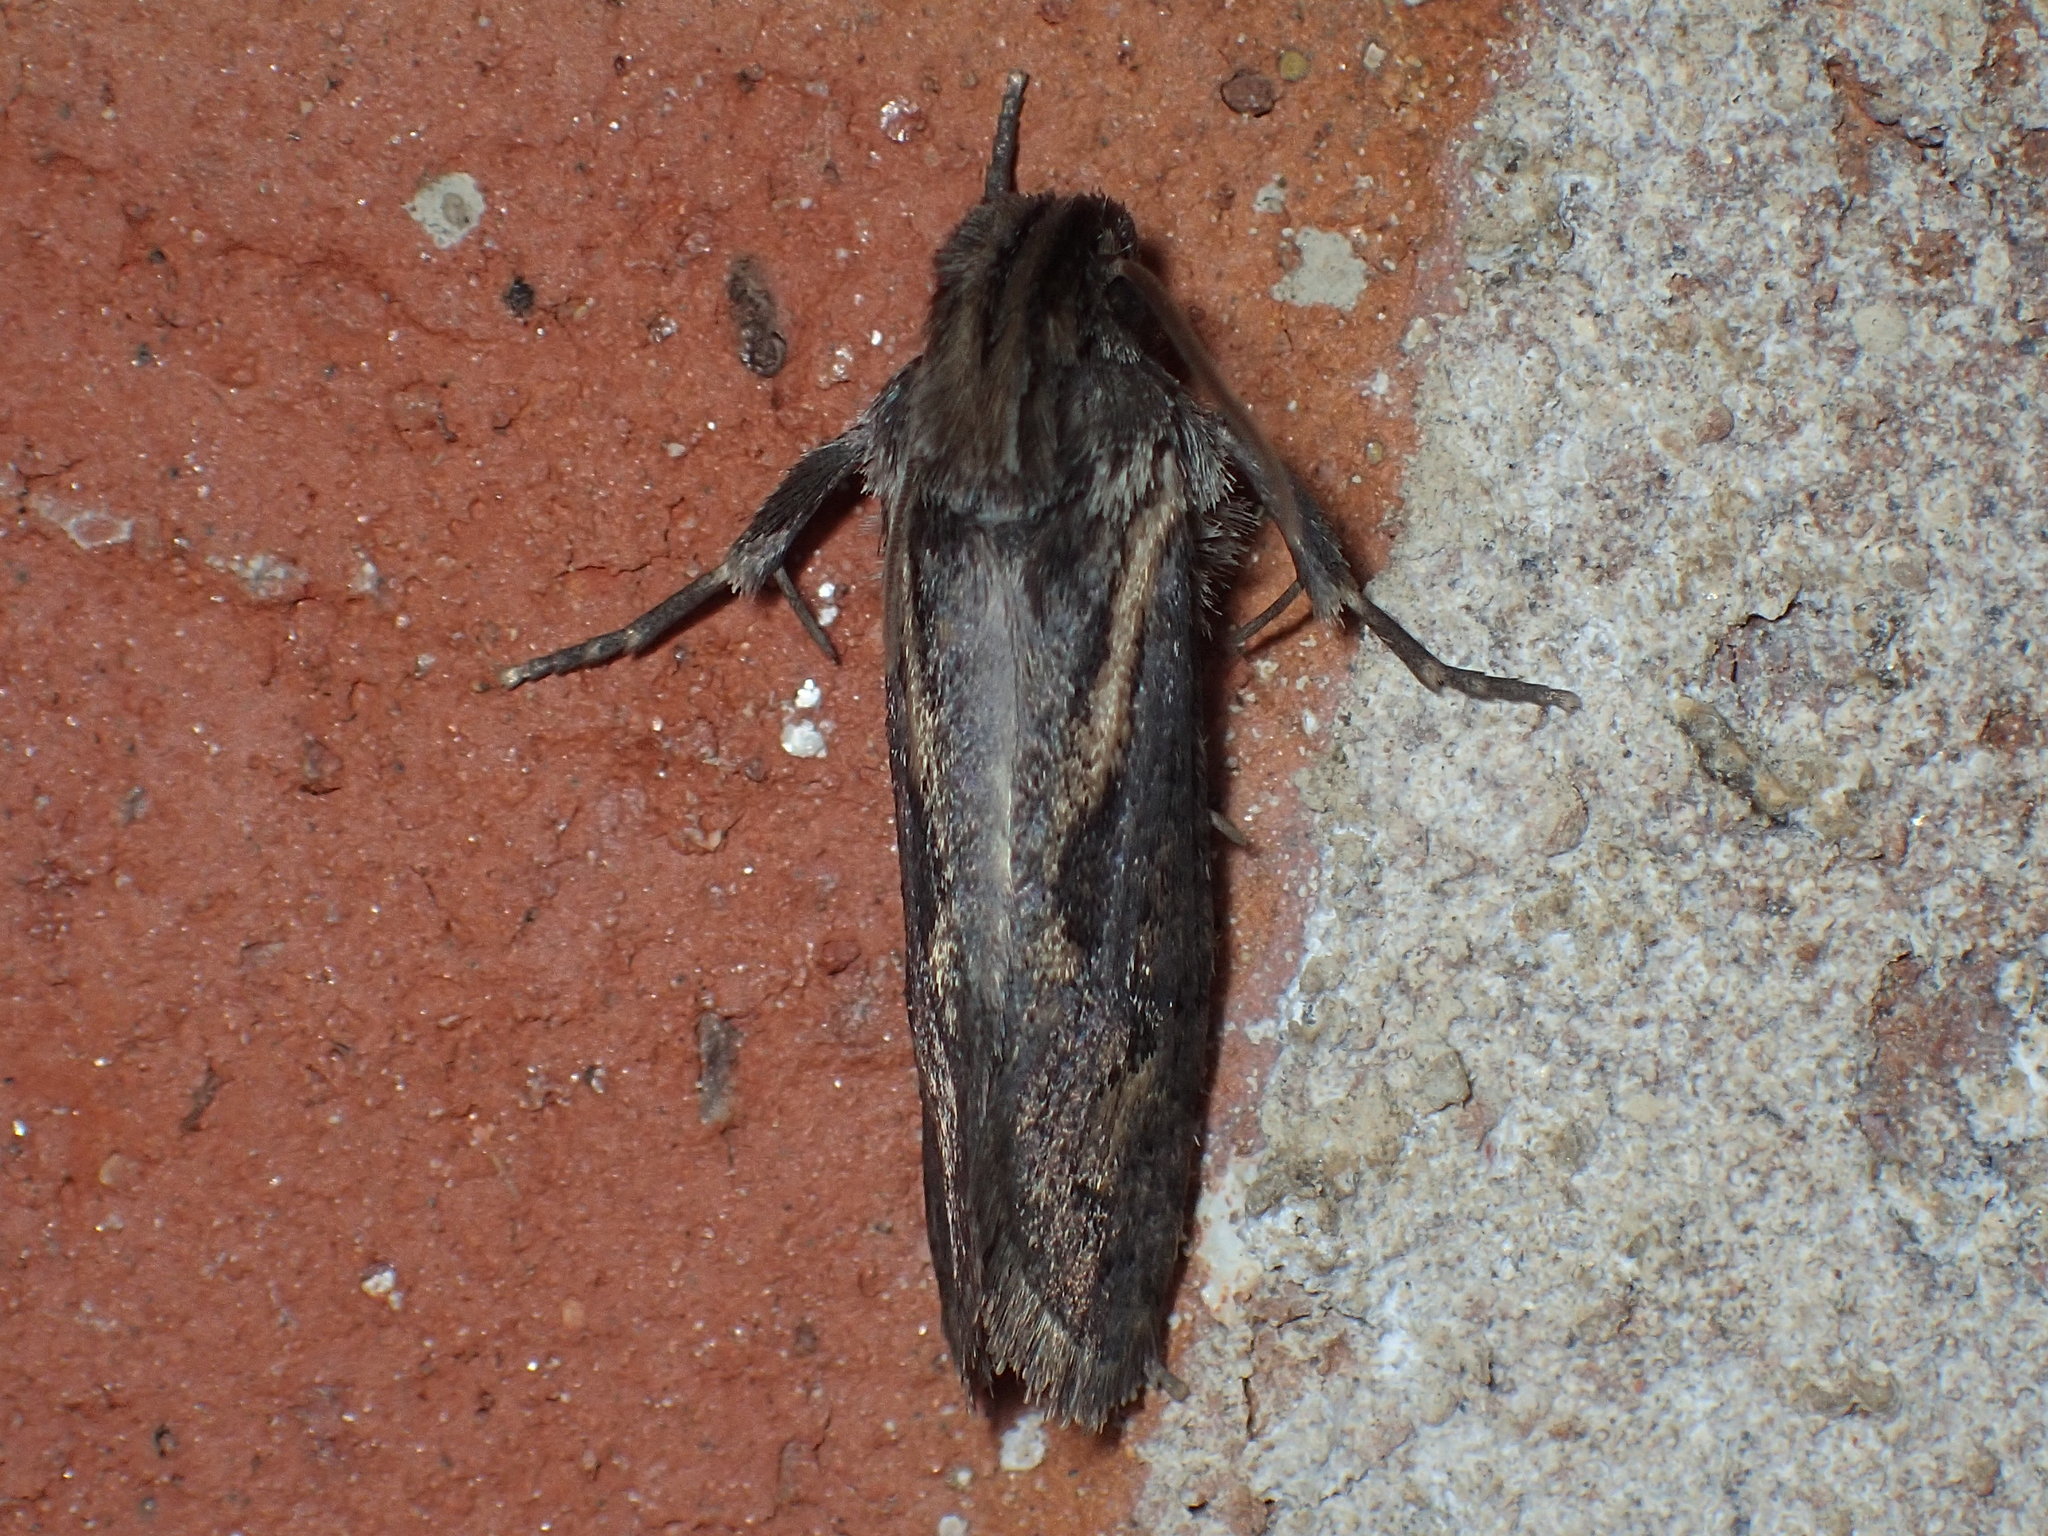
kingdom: Animalia
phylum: Arthropoda
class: Insecta
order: Lepidoptera
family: Tineidae
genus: Acrolophus
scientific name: Acrolophus popeanella
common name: Clemens' grass tubeworm moth
